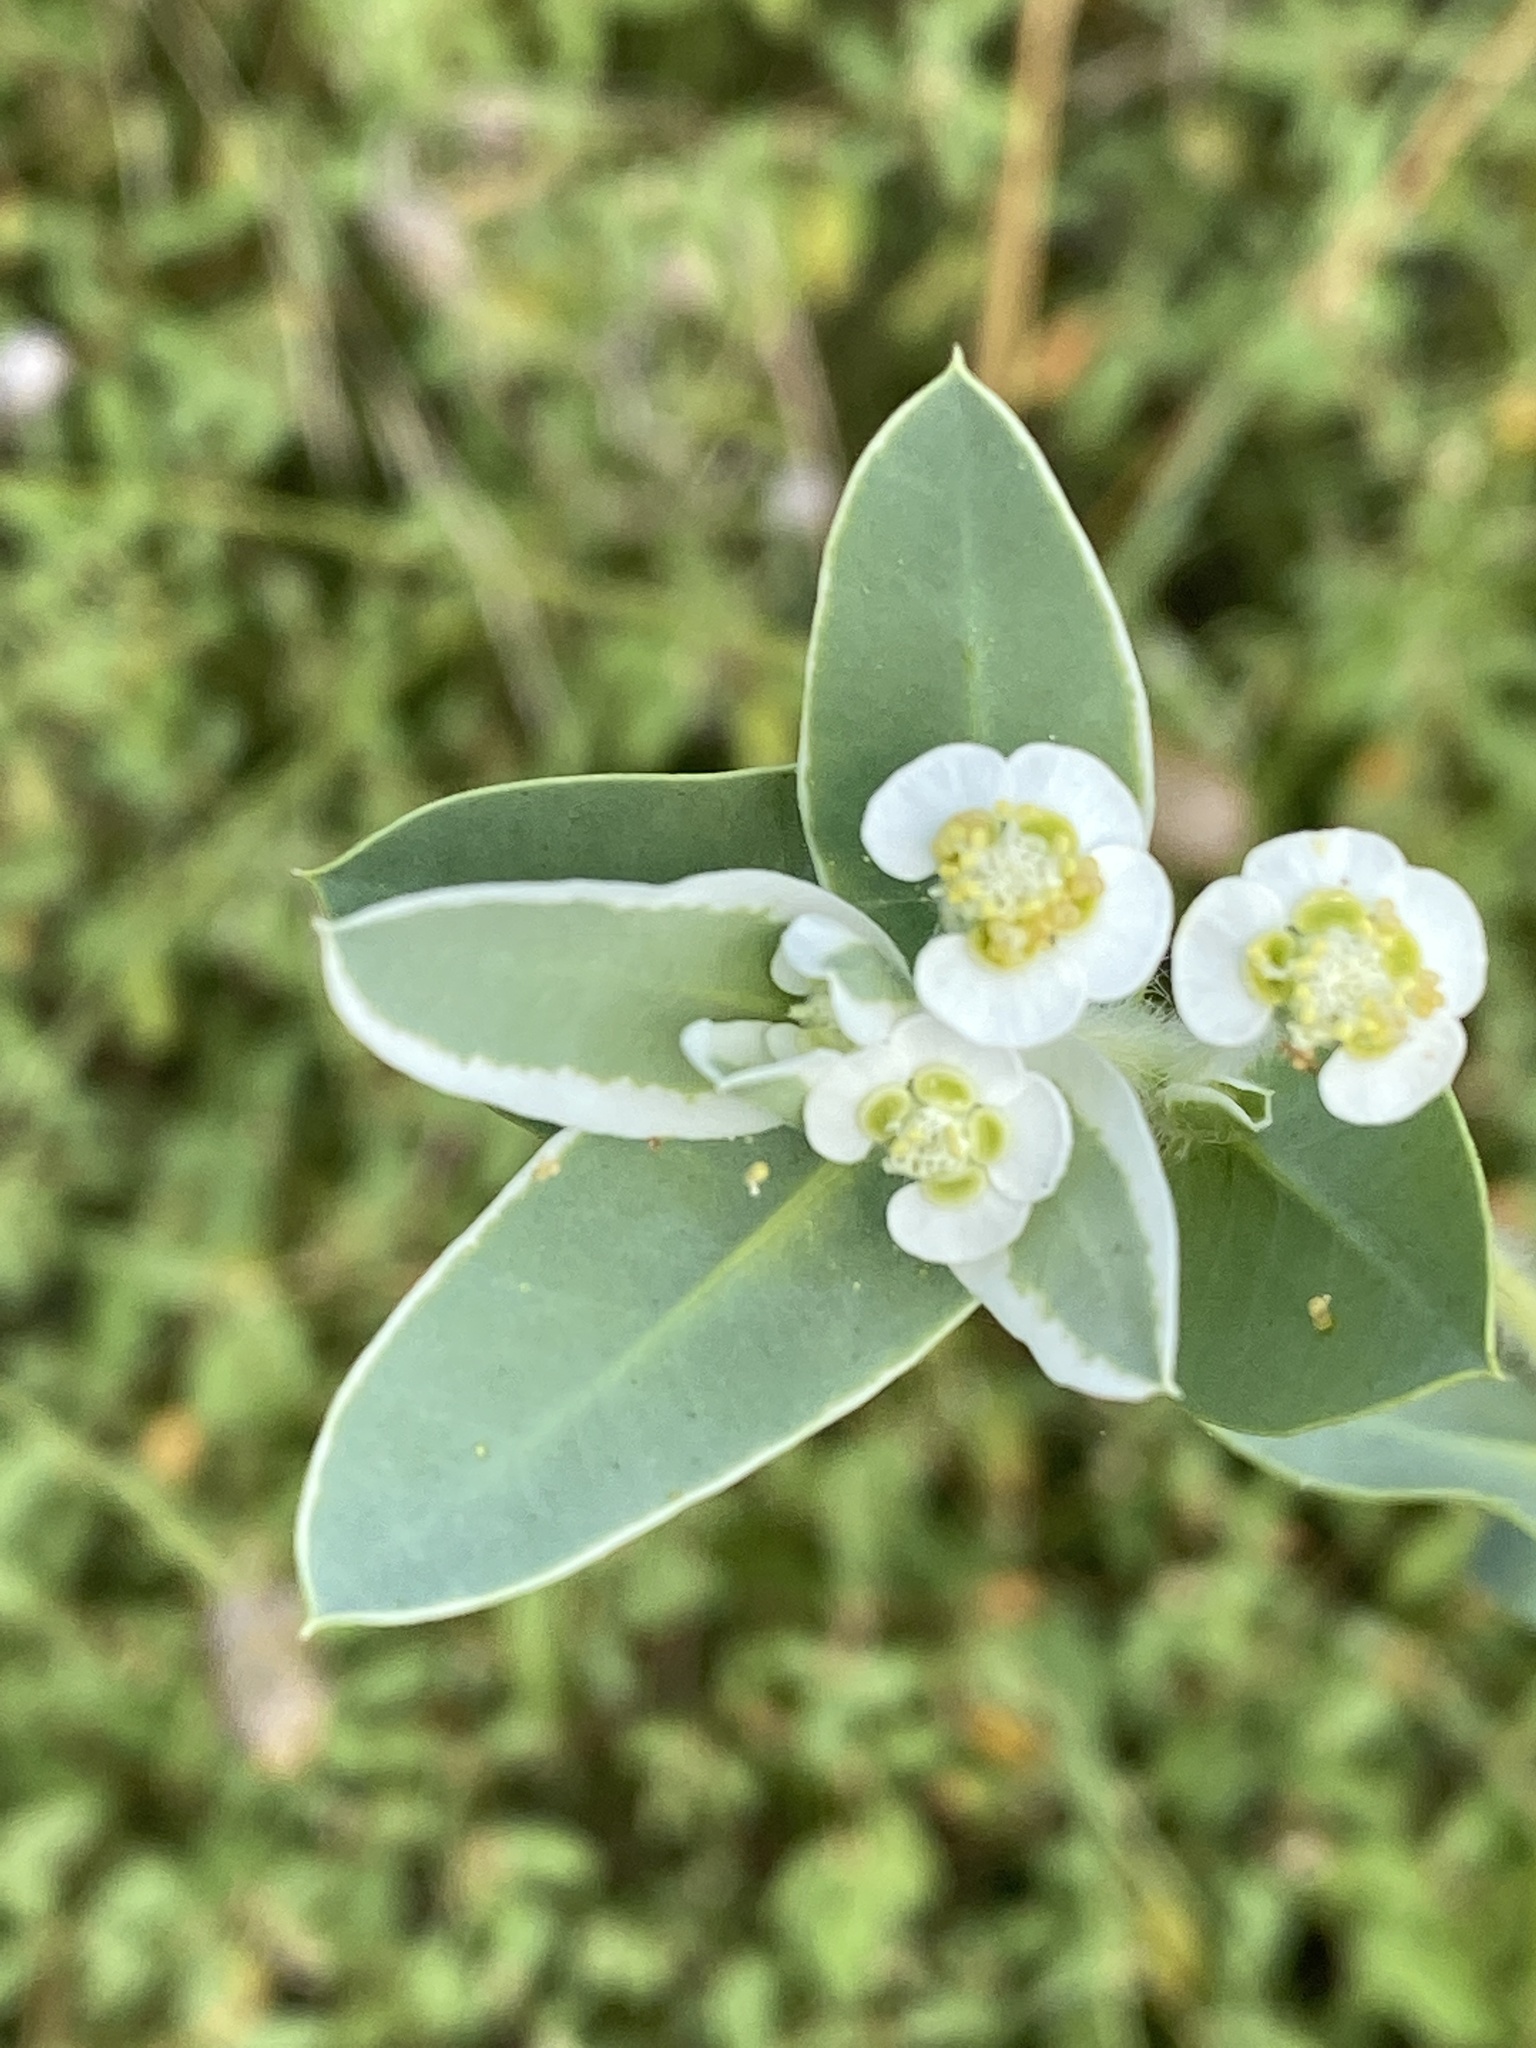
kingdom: Plantae
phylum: Tracheophyta
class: Magnoliopsida
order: Malpighiales
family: Euphorbiaceae
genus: Euphorbia
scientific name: Euphorbia marginata
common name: Ghostweed
